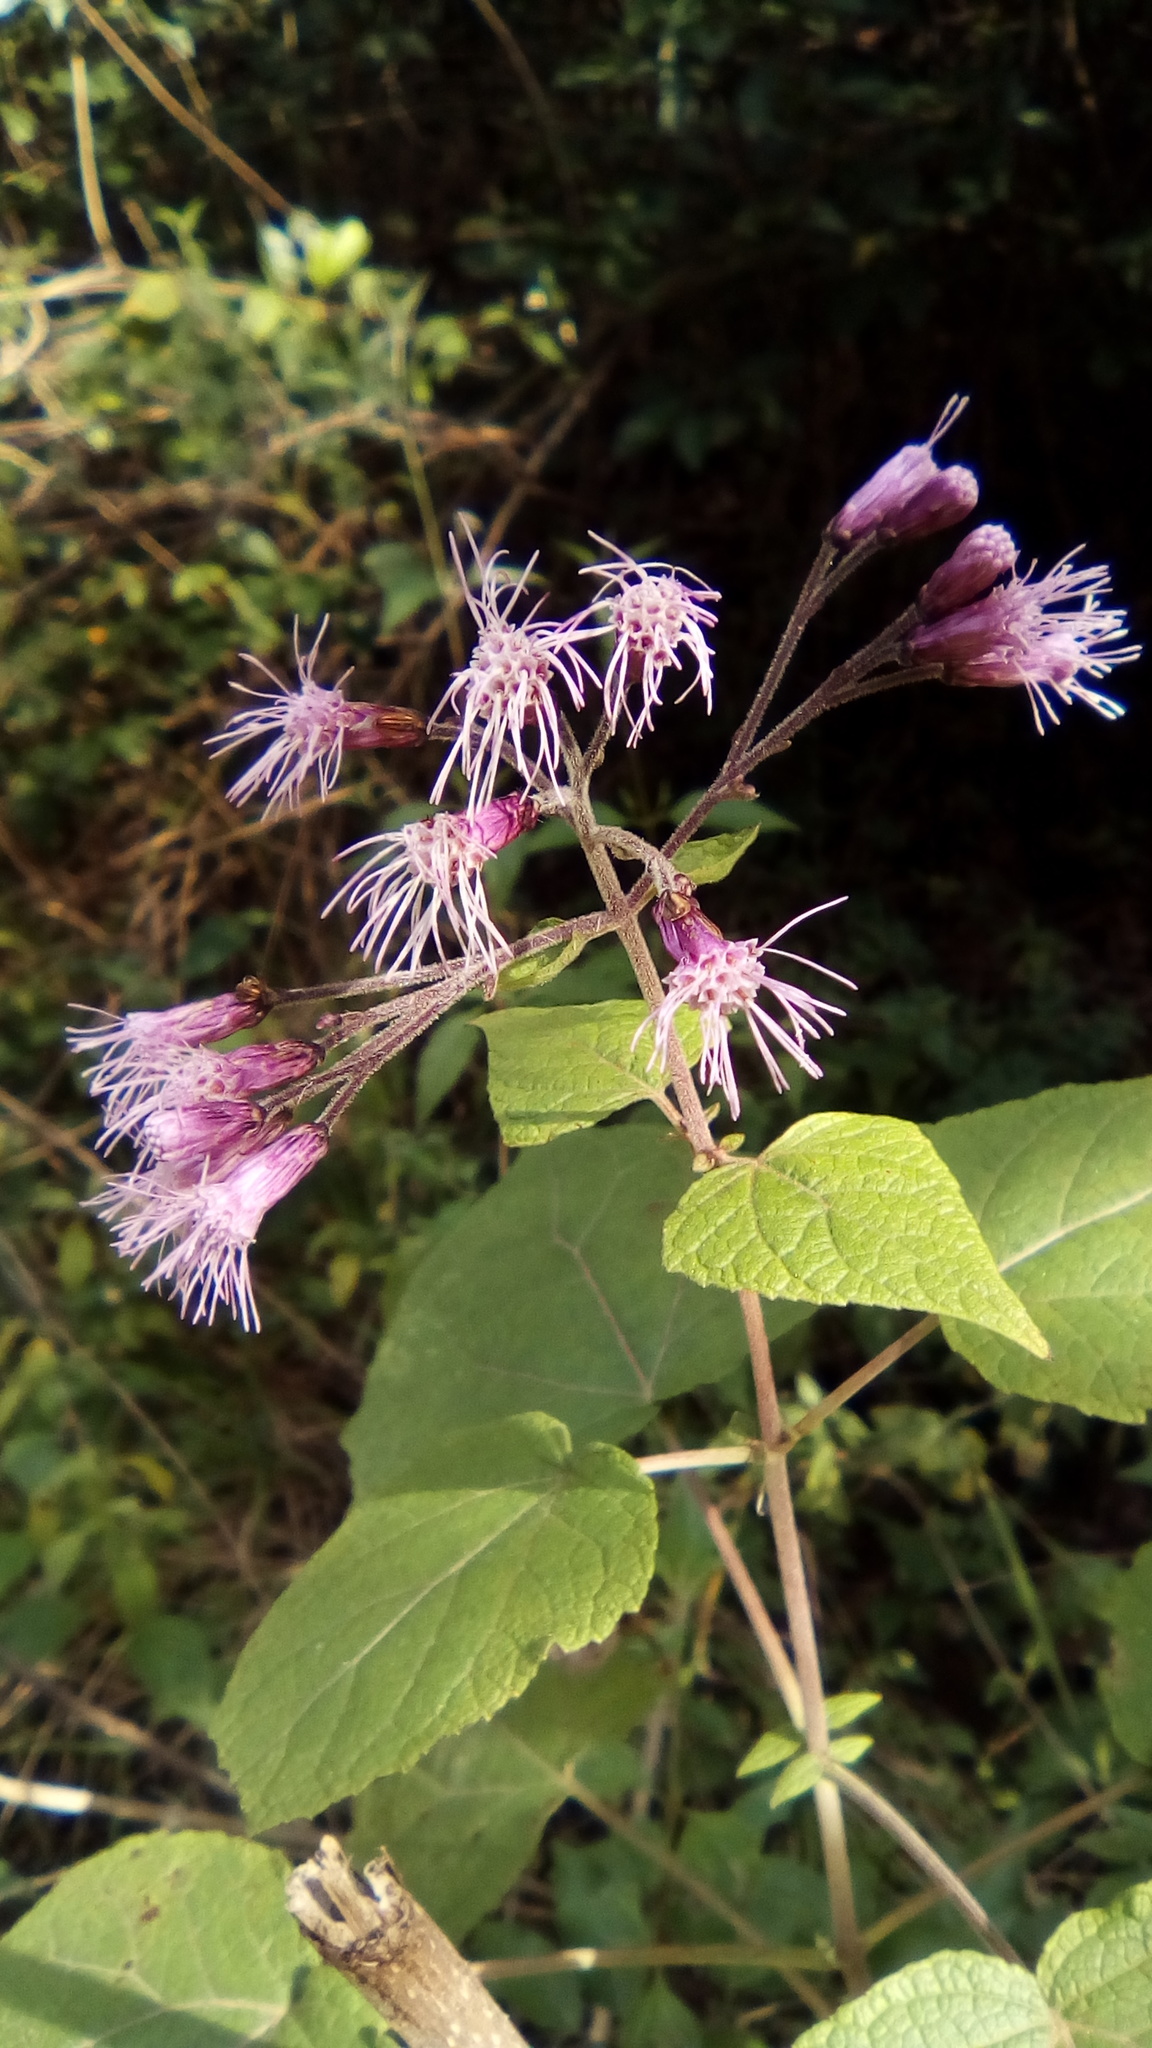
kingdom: Plantae
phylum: Tracheophyta
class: Magnoliopsida
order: Asterales
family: Asteraceae
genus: Peteravenia
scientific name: Peteravenia malvifolia
